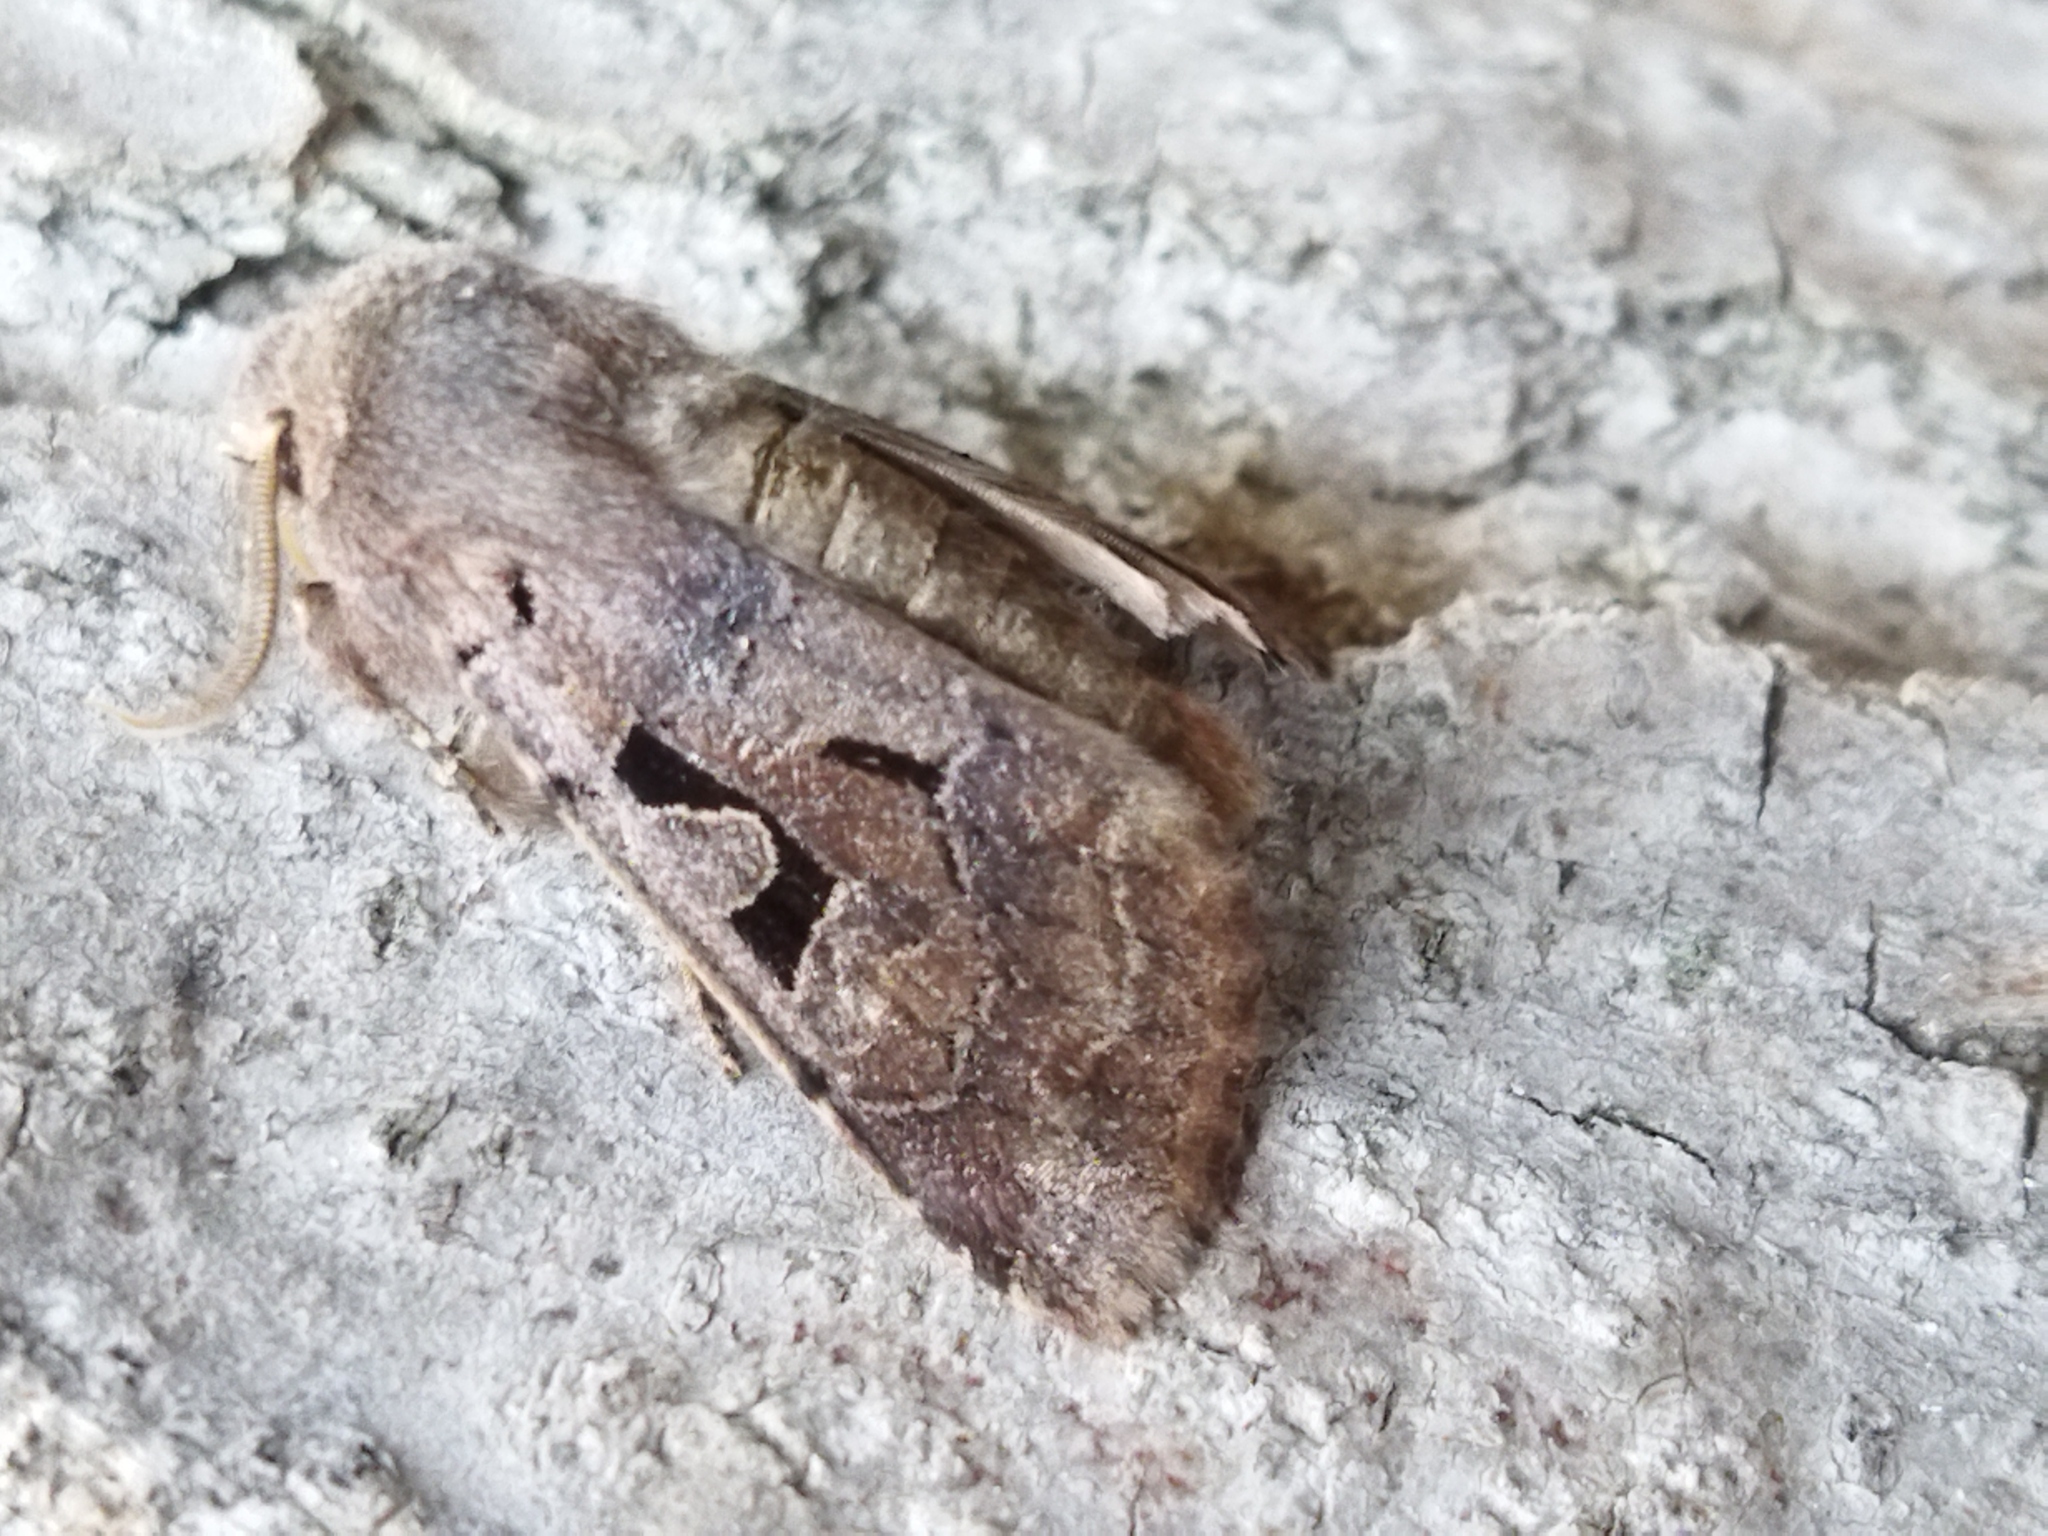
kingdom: Animalia
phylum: Arthropoda
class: Insecta
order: Lepidoptera
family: Noctuidae
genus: Orthosia
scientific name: Orthosia gothica
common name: Hebrew character
